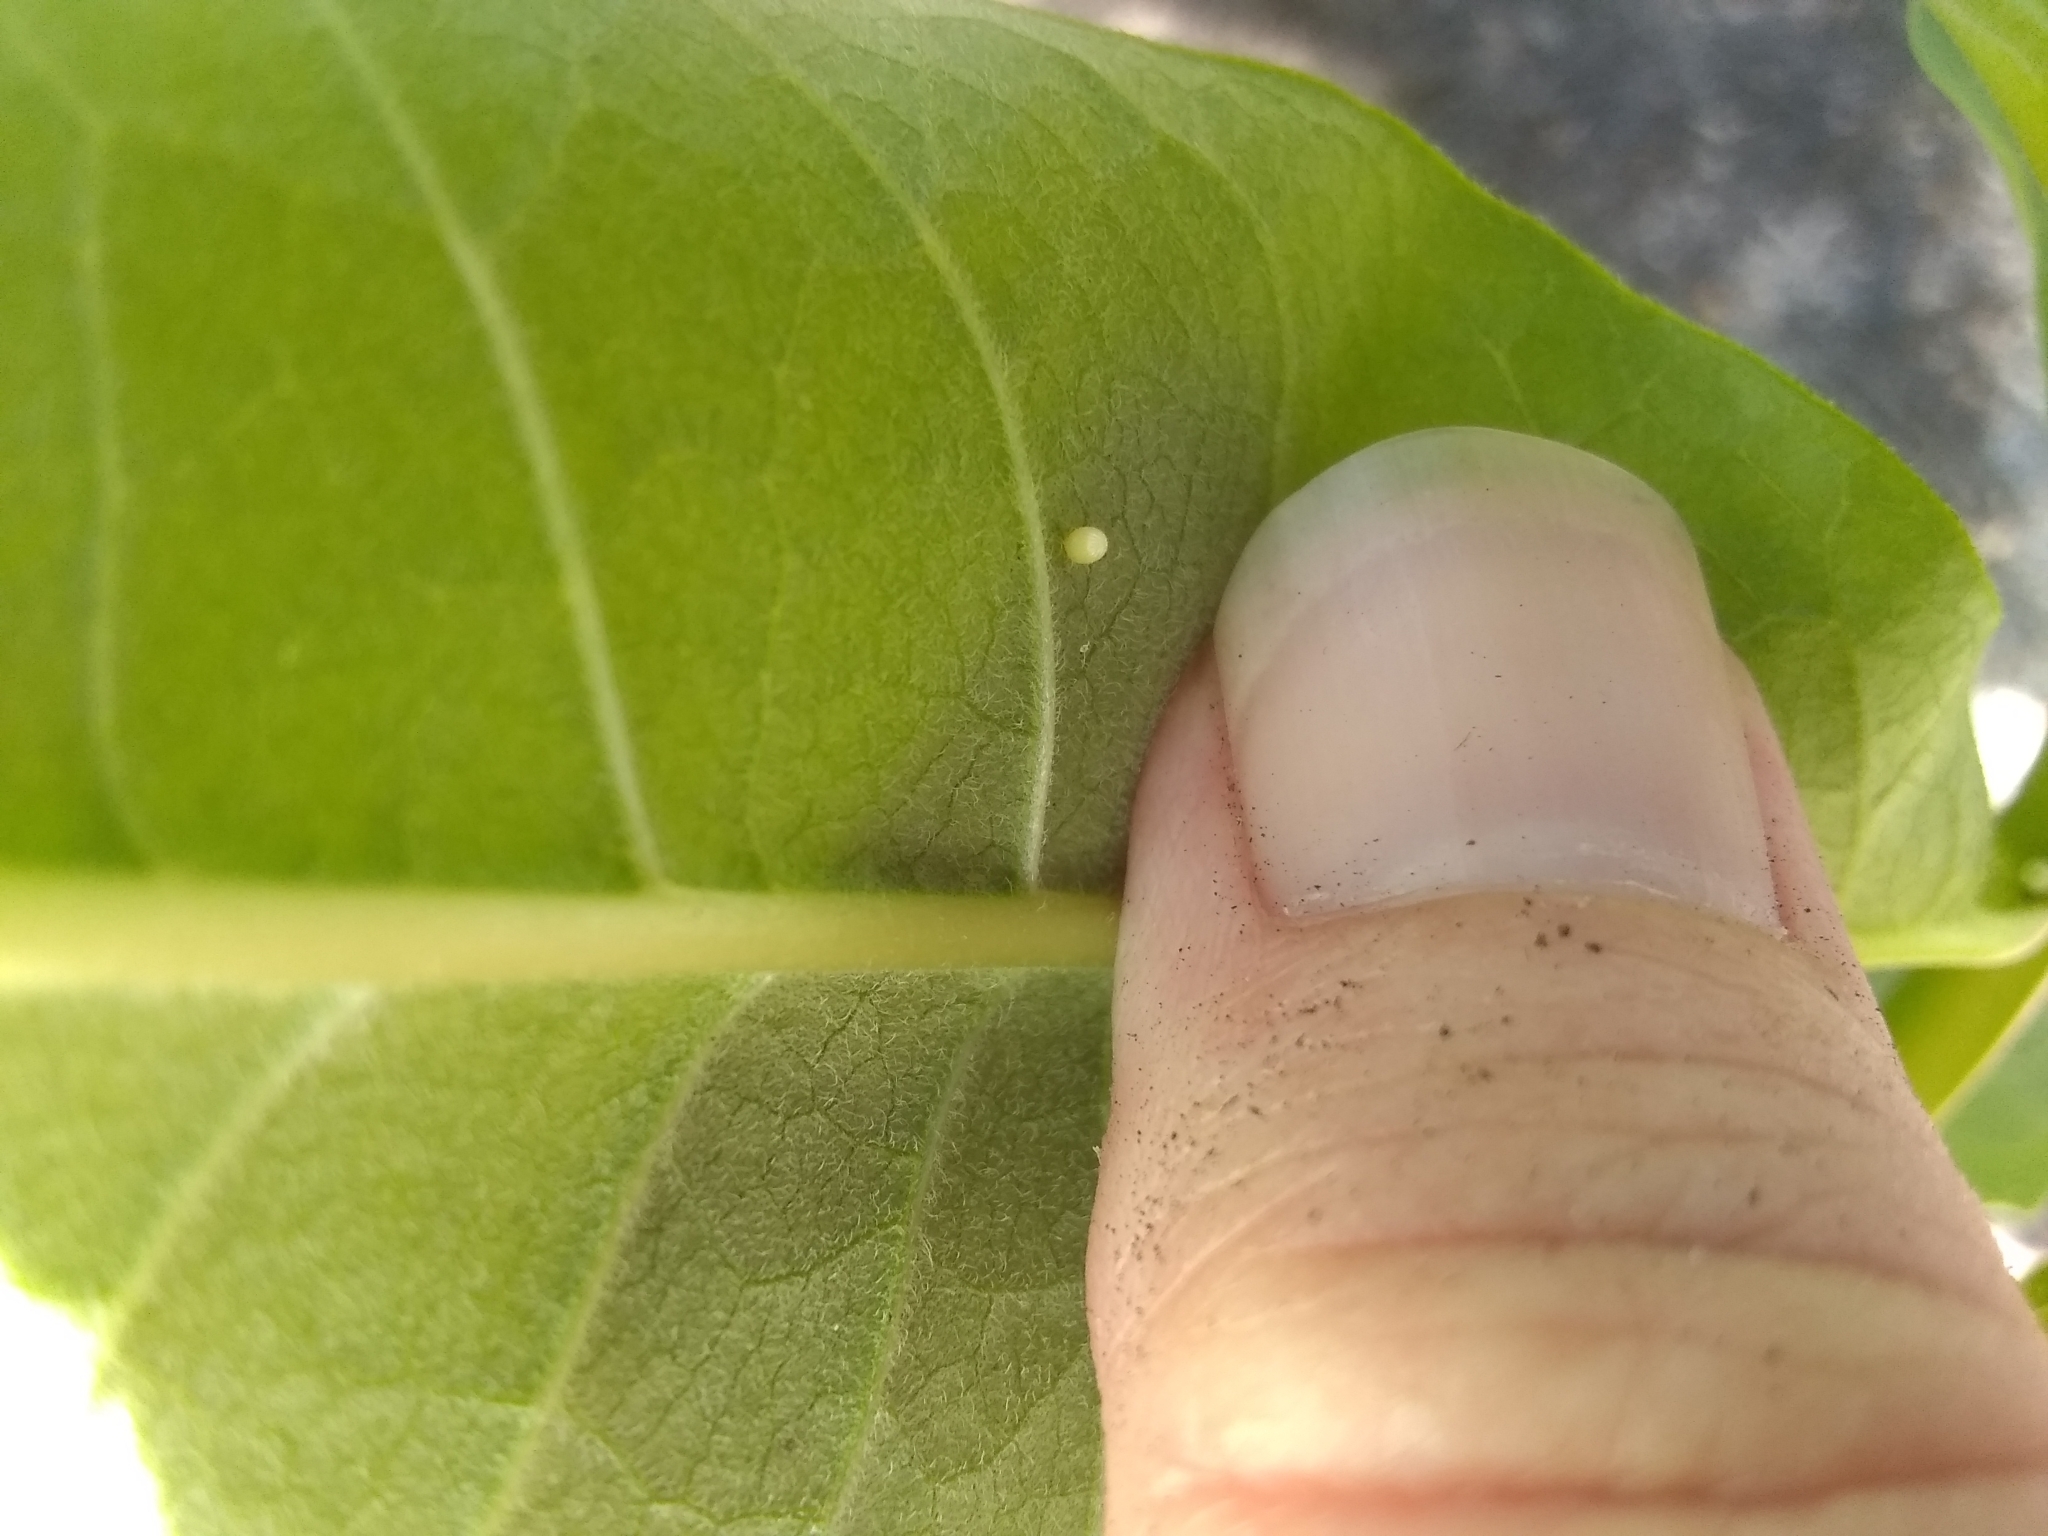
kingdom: Animalia
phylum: Arthropoda
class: Insecta
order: Lepidoptera
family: Nymphalidae
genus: Danaus
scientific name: Danaus plexippus
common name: Monarch
